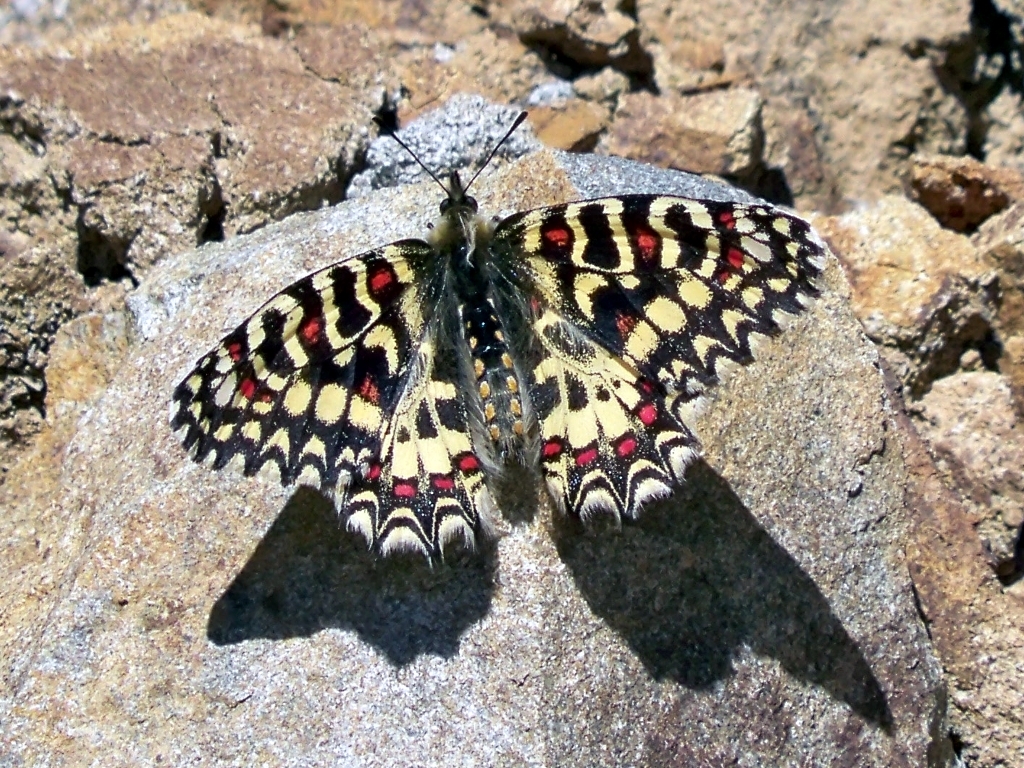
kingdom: Animalia
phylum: Arthropoda
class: Insecta
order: Lepidoptera
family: Papilionidae
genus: Zerynthia
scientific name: Zerynthia rumina
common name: Spanish festoon
